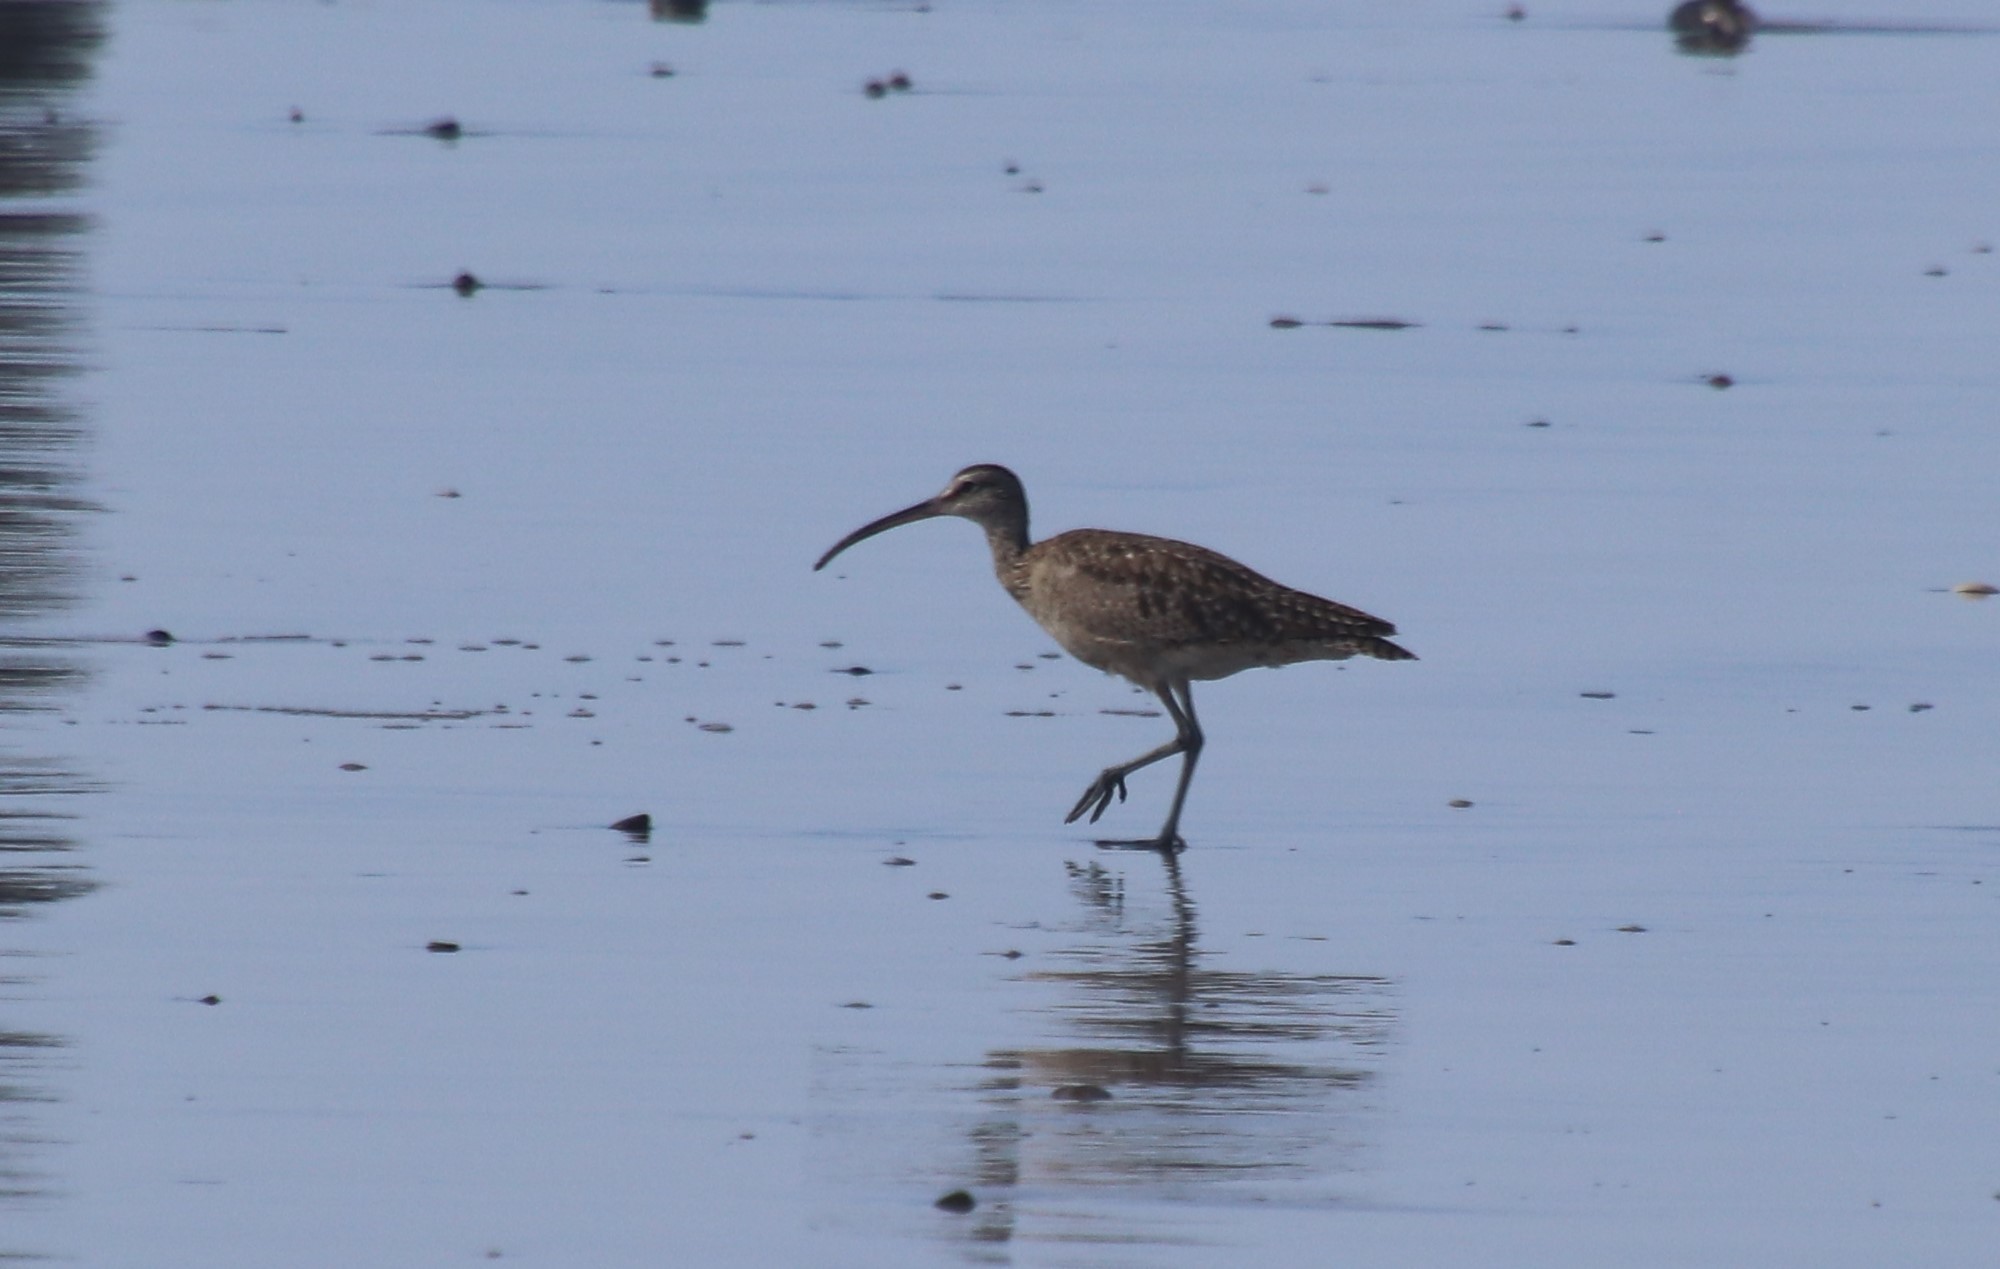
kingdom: Animalia
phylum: Chordata
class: Aves
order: Charadriiformes
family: Scolopacidae
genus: Numenius
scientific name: Numenius phaeopus
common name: Whimbrel
